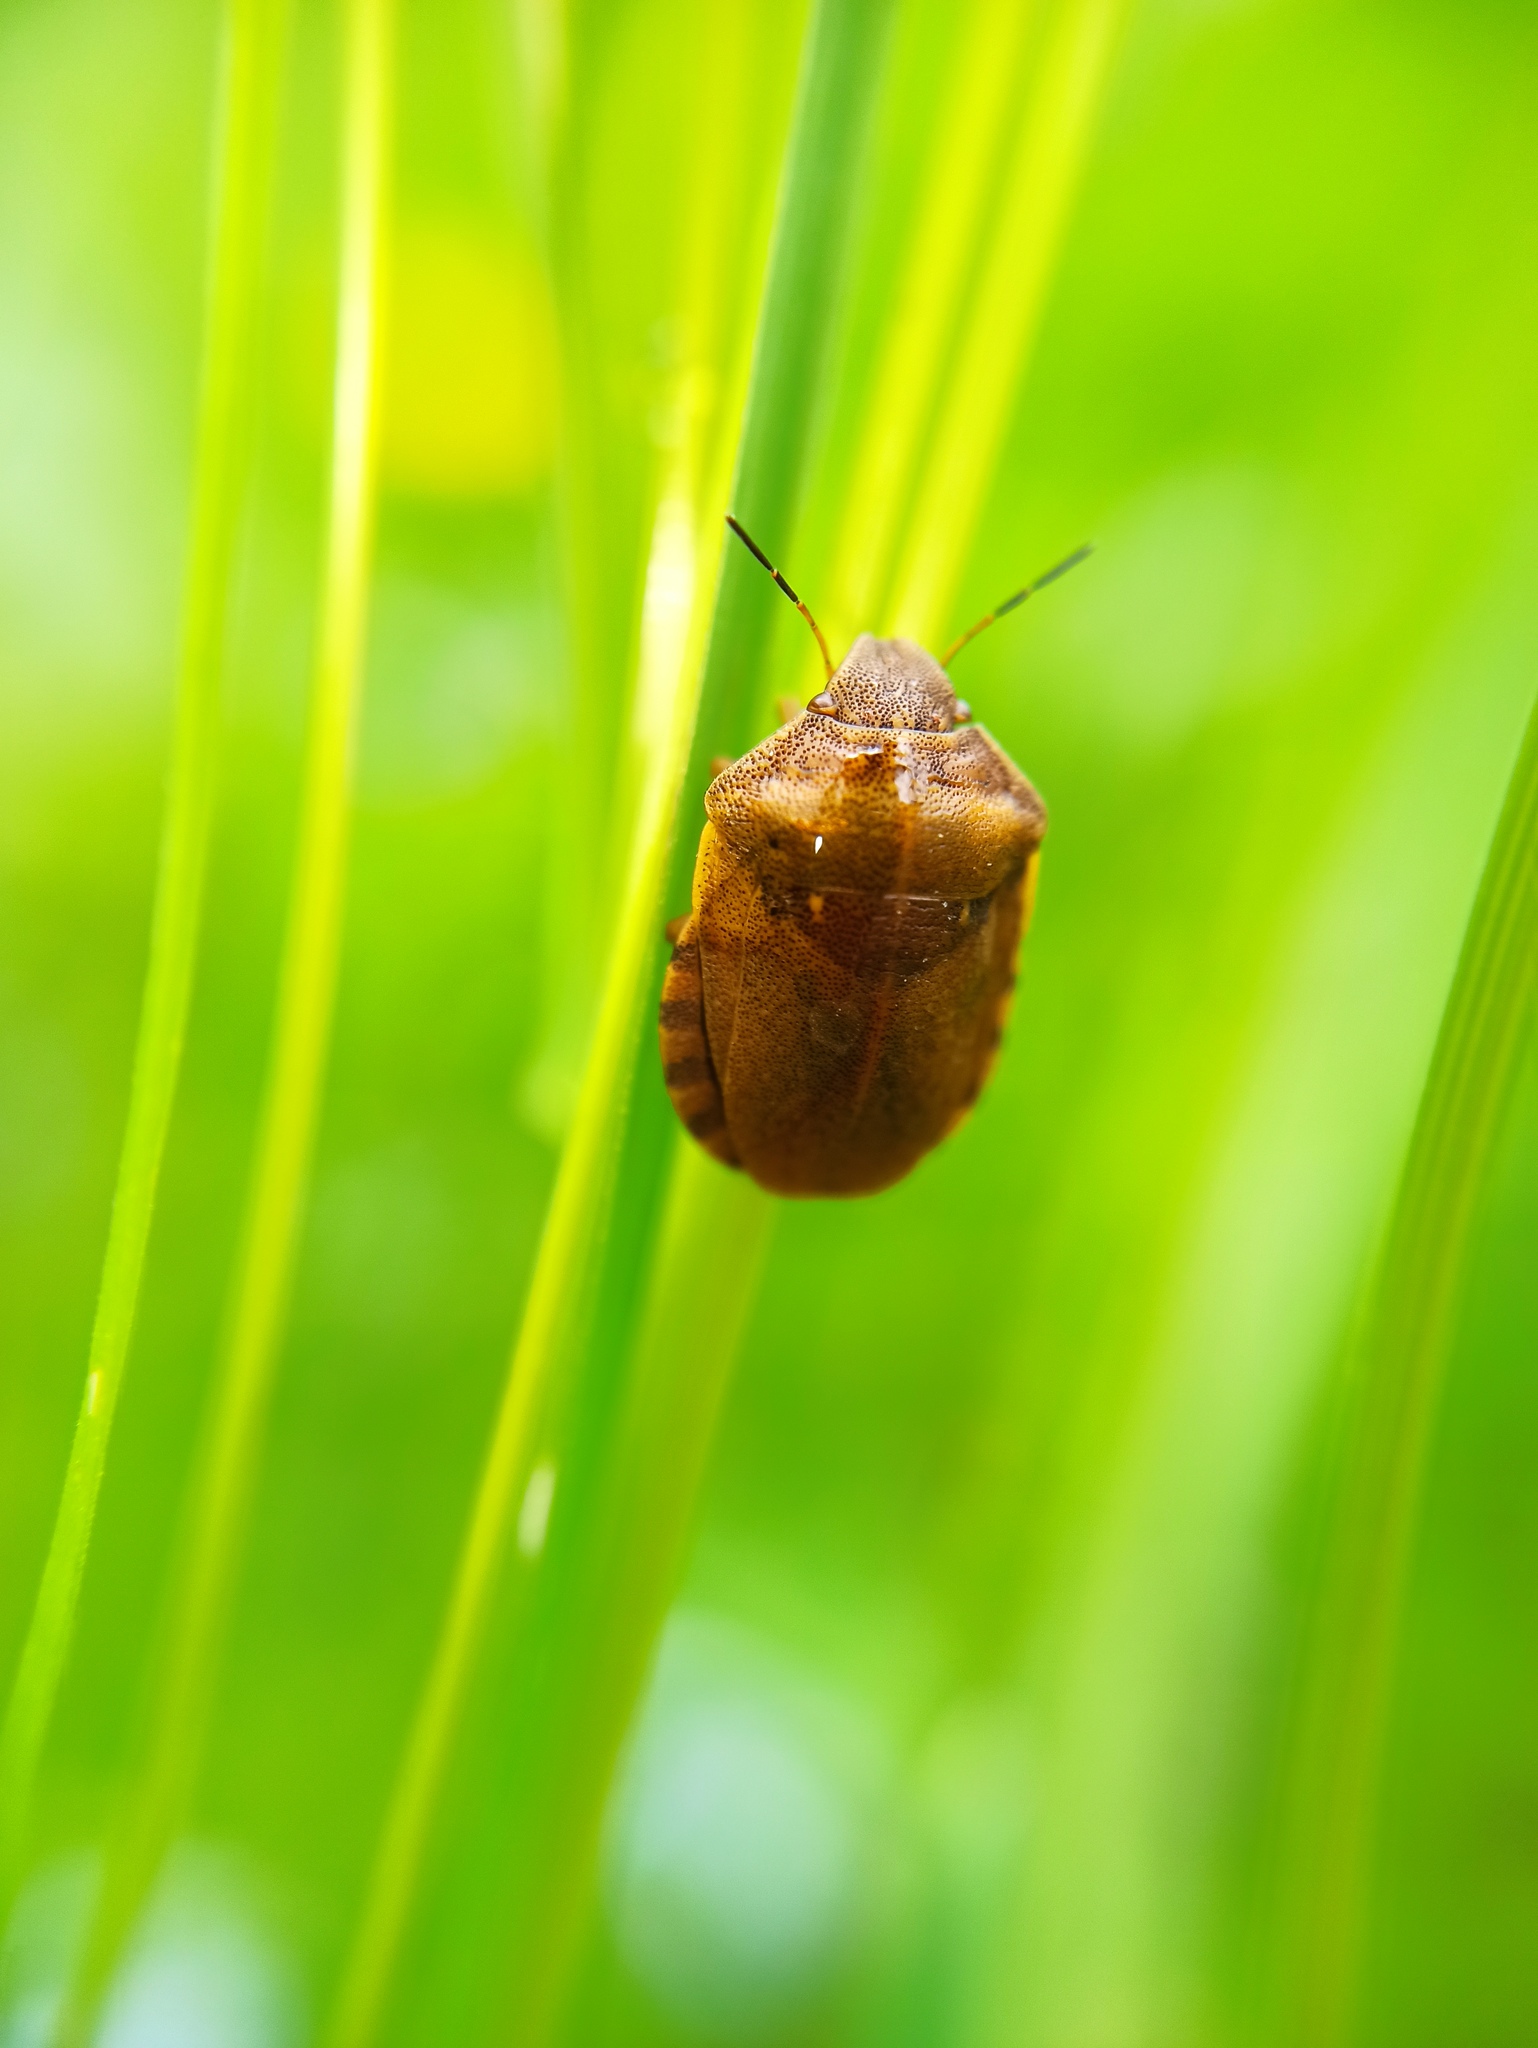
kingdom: Animalia
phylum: Arthropoda
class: Insecta
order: Hemiptera
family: Scutelleridae
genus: Eurygaster
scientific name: Eurygaster testudinaria
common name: Tortoise bug
